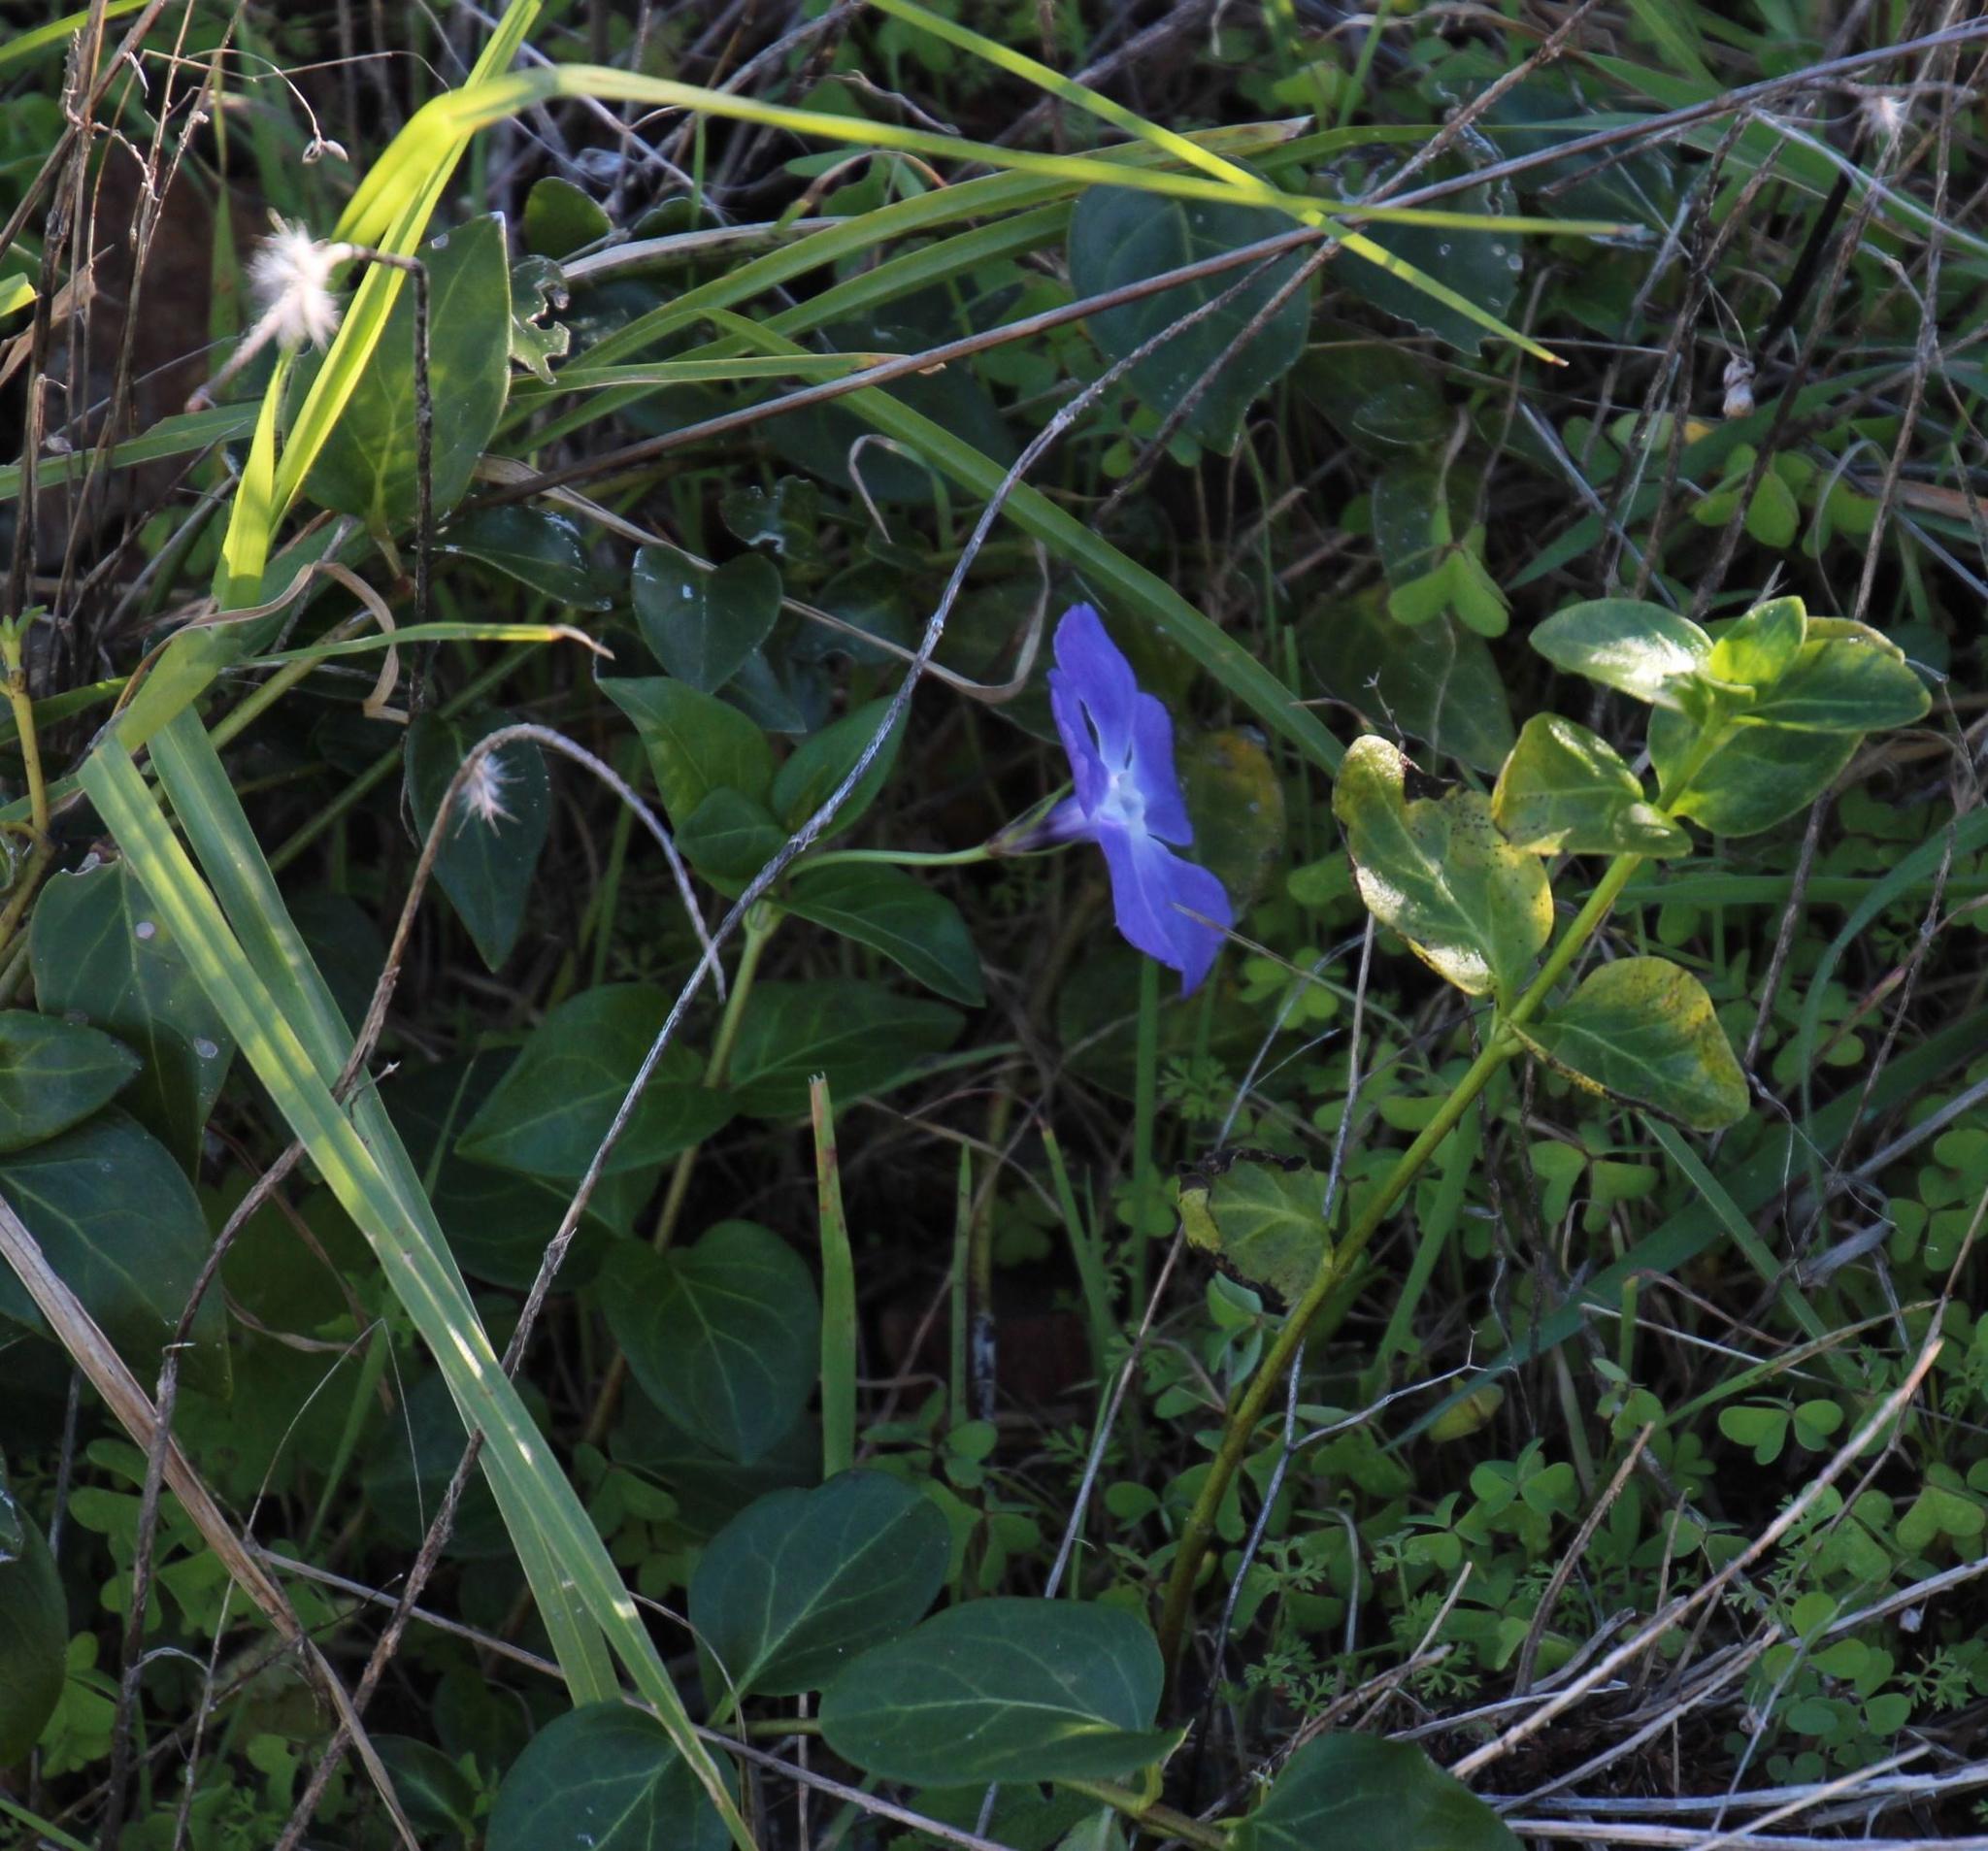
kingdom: Plantae
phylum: Tracheophyta
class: Magnoliopsida
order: Gentianales
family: Apocynaceae
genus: Vinca
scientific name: Vinca major
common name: Greater periwinkle
